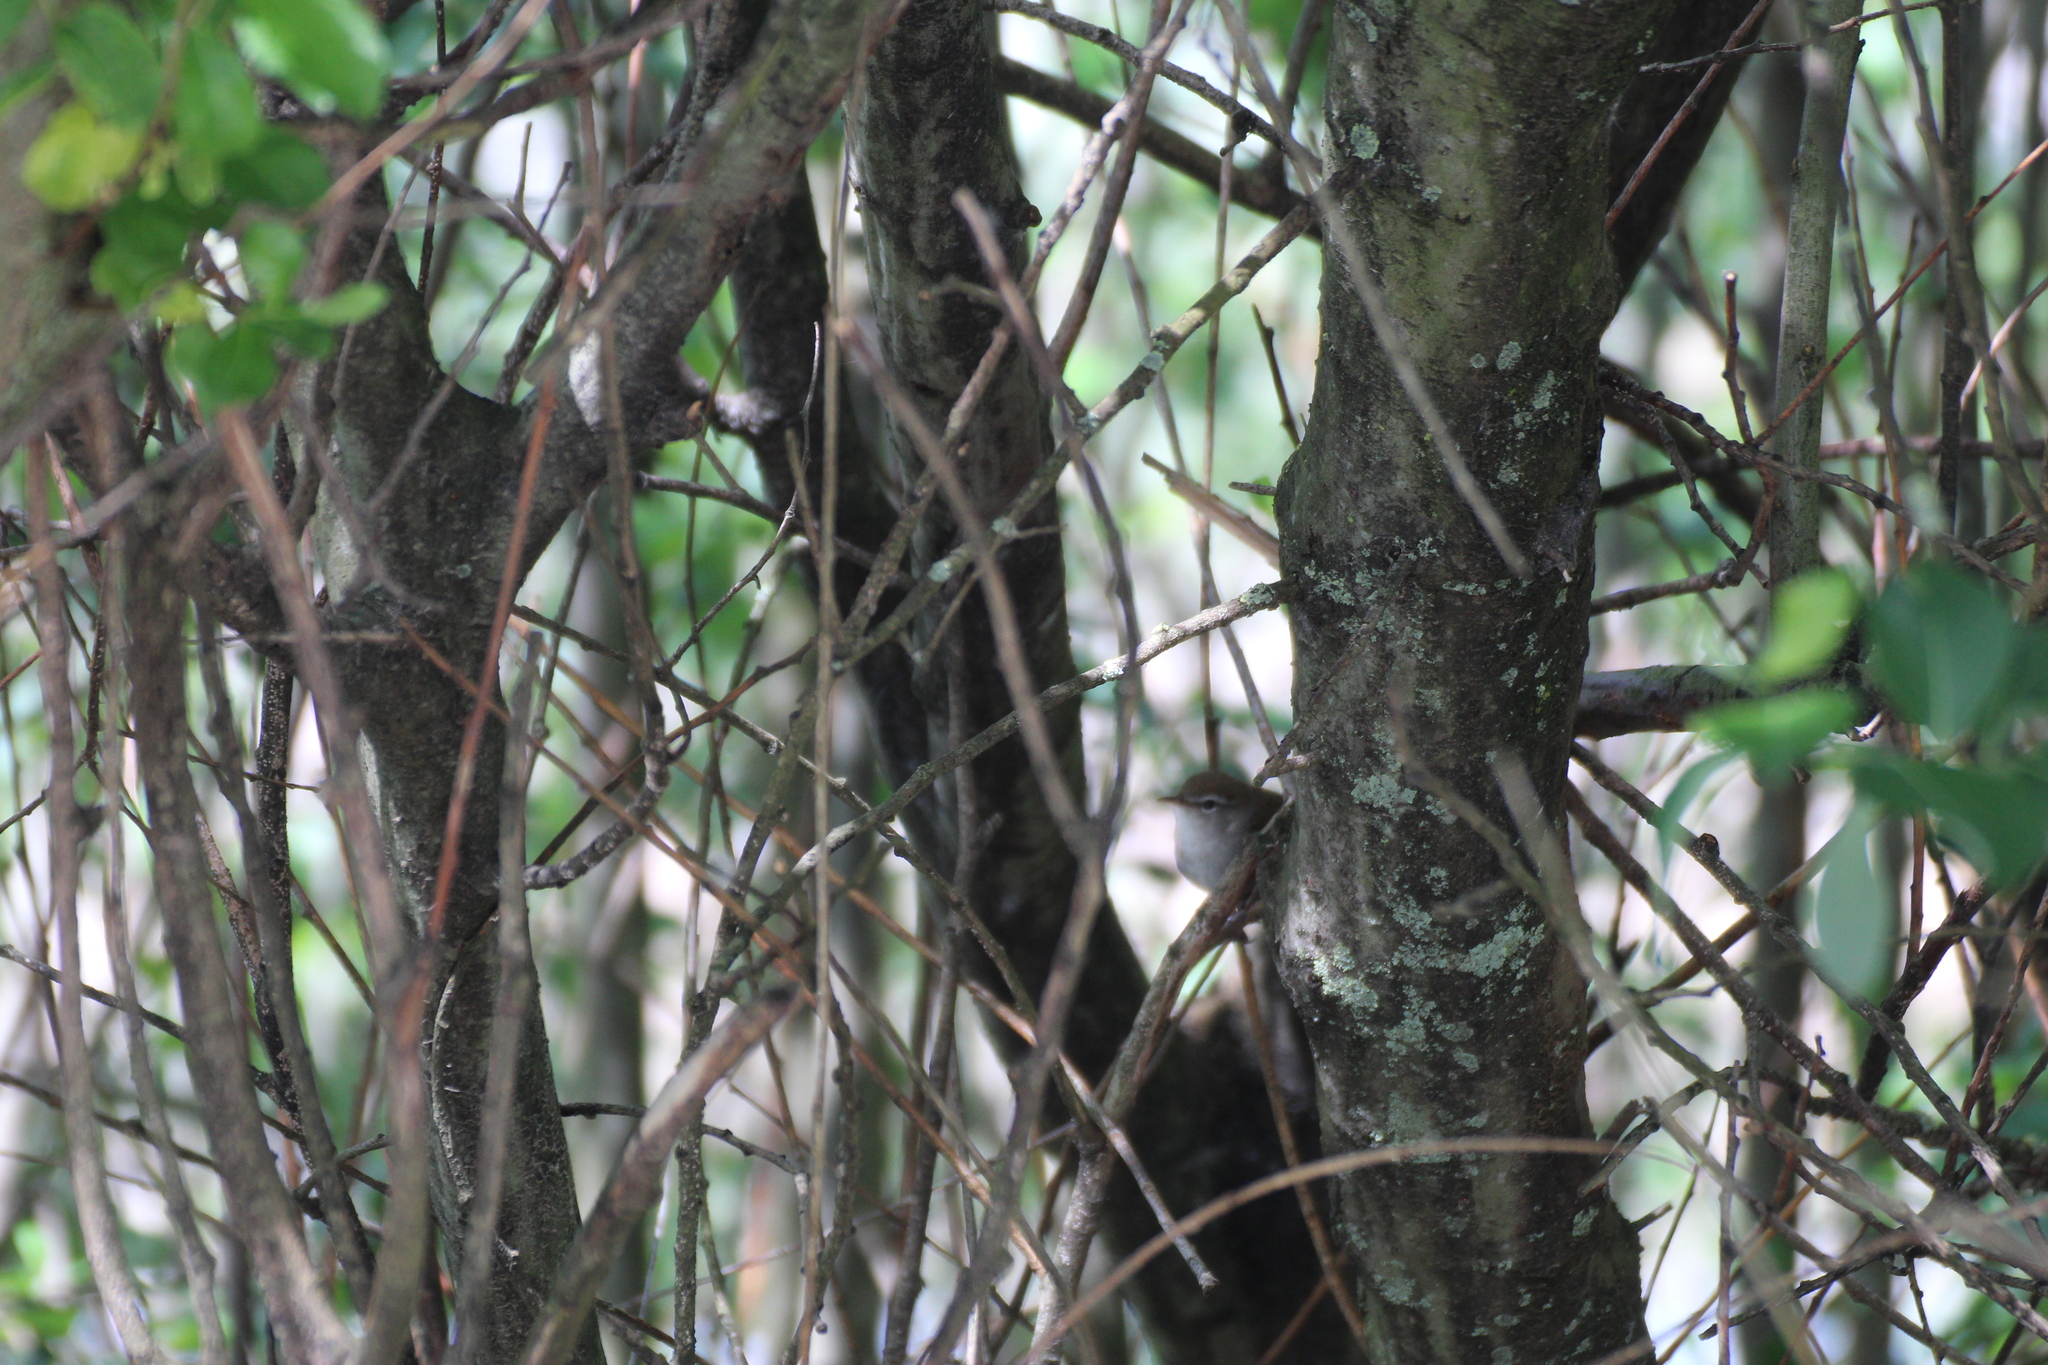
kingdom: Animalia
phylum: Chordata
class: Aves
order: Passeriformes
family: Cettiidae
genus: Cettia
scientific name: Cettia cetti
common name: Cetti's warbler
